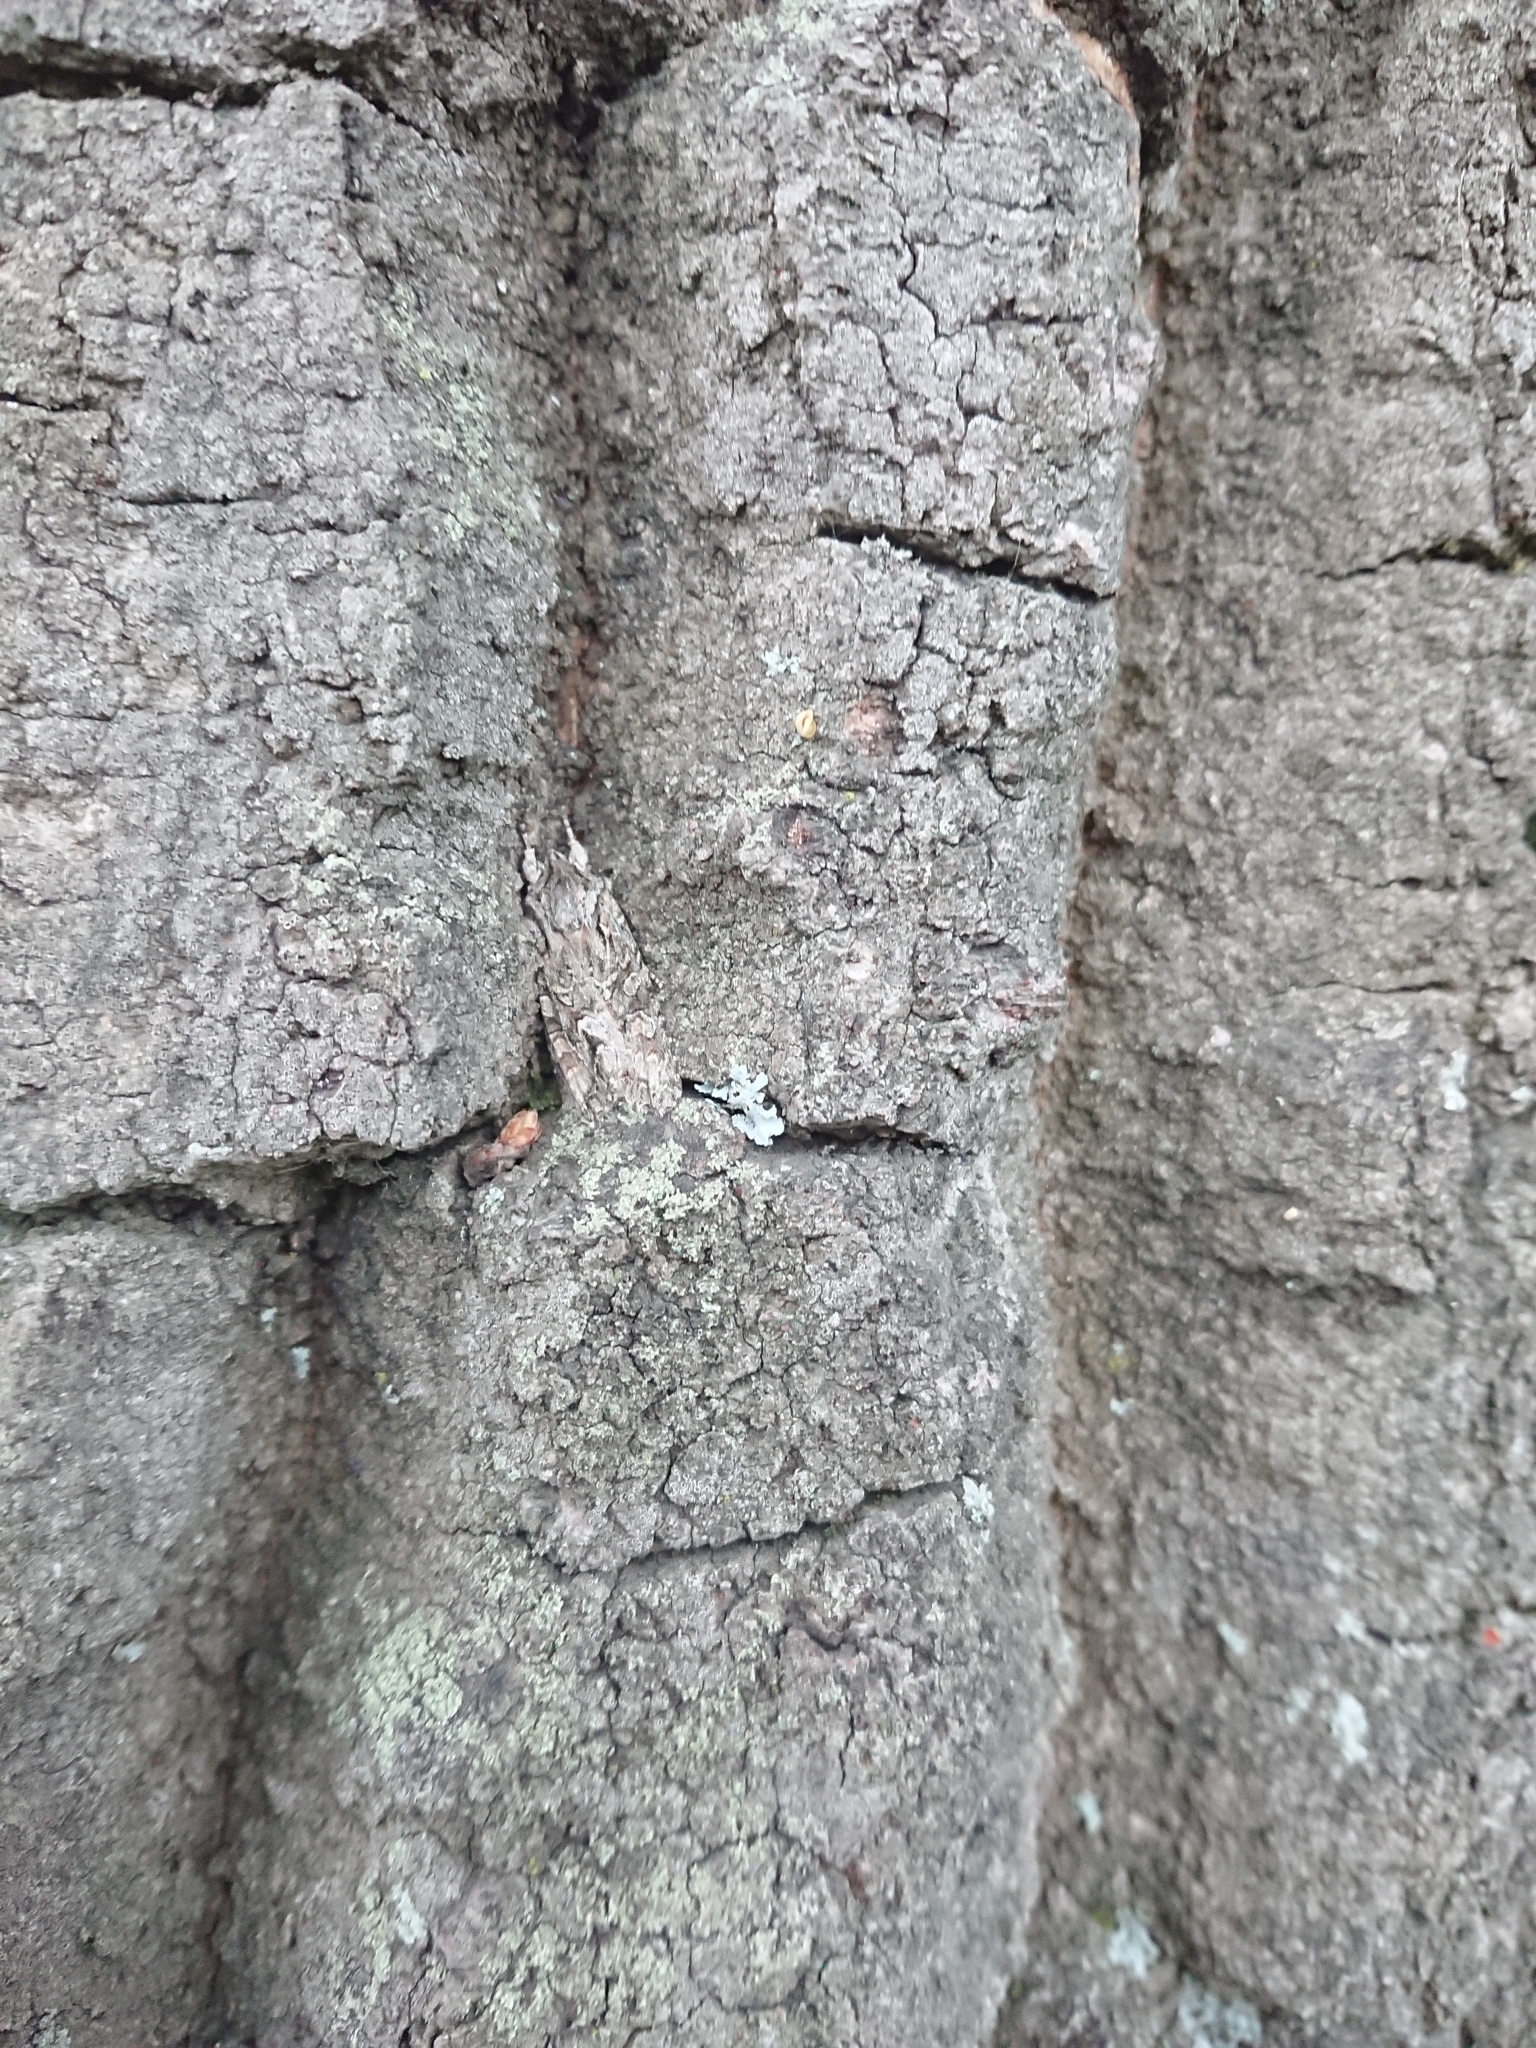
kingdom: Animalia
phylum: Arthropoda
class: Insecta
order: Lepidoptera
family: Noctuidae
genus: Ichneutica
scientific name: Ichneutica mutans
